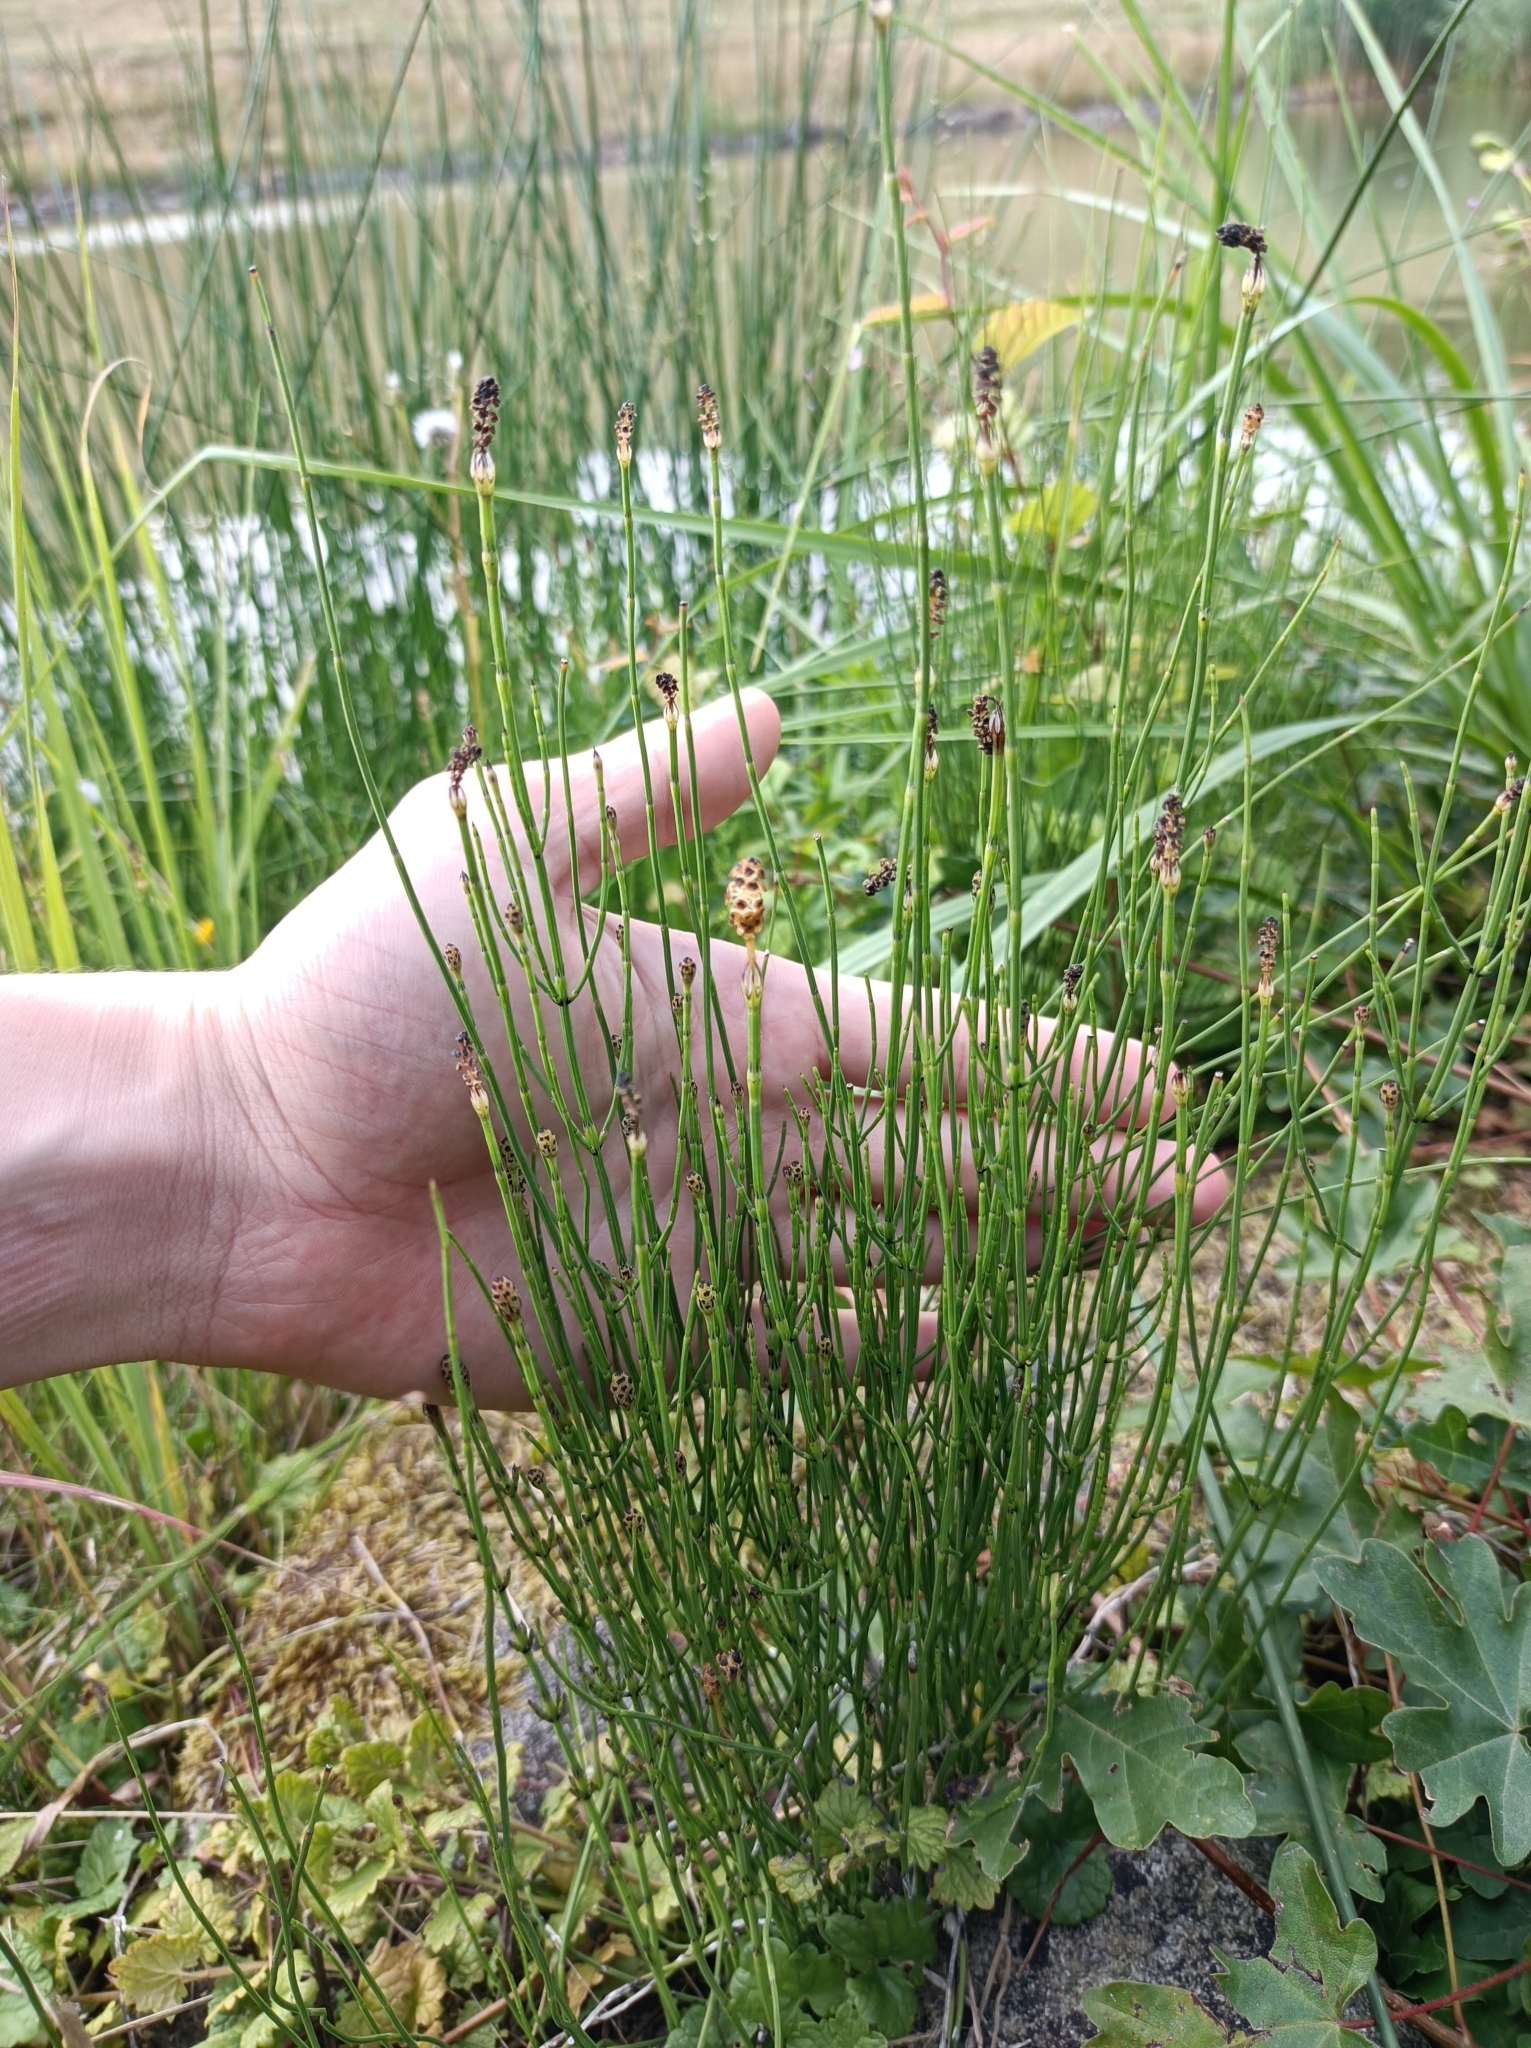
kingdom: Plantae
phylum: Tracheophyta
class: Polypodiopsida
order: Equisetales
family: Equisetaceae
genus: Equisetum
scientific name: Equisetum palustre
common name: Marsh horsetail
